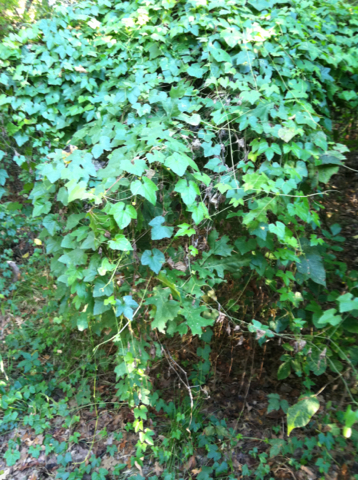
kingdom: Plantae
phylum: Tracheophyta
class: Magnoliopsida
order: Cucurbitales
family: Cucurbitaceae
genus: Melothria
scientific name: Melothria pendula
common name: Creeping-cucumber
